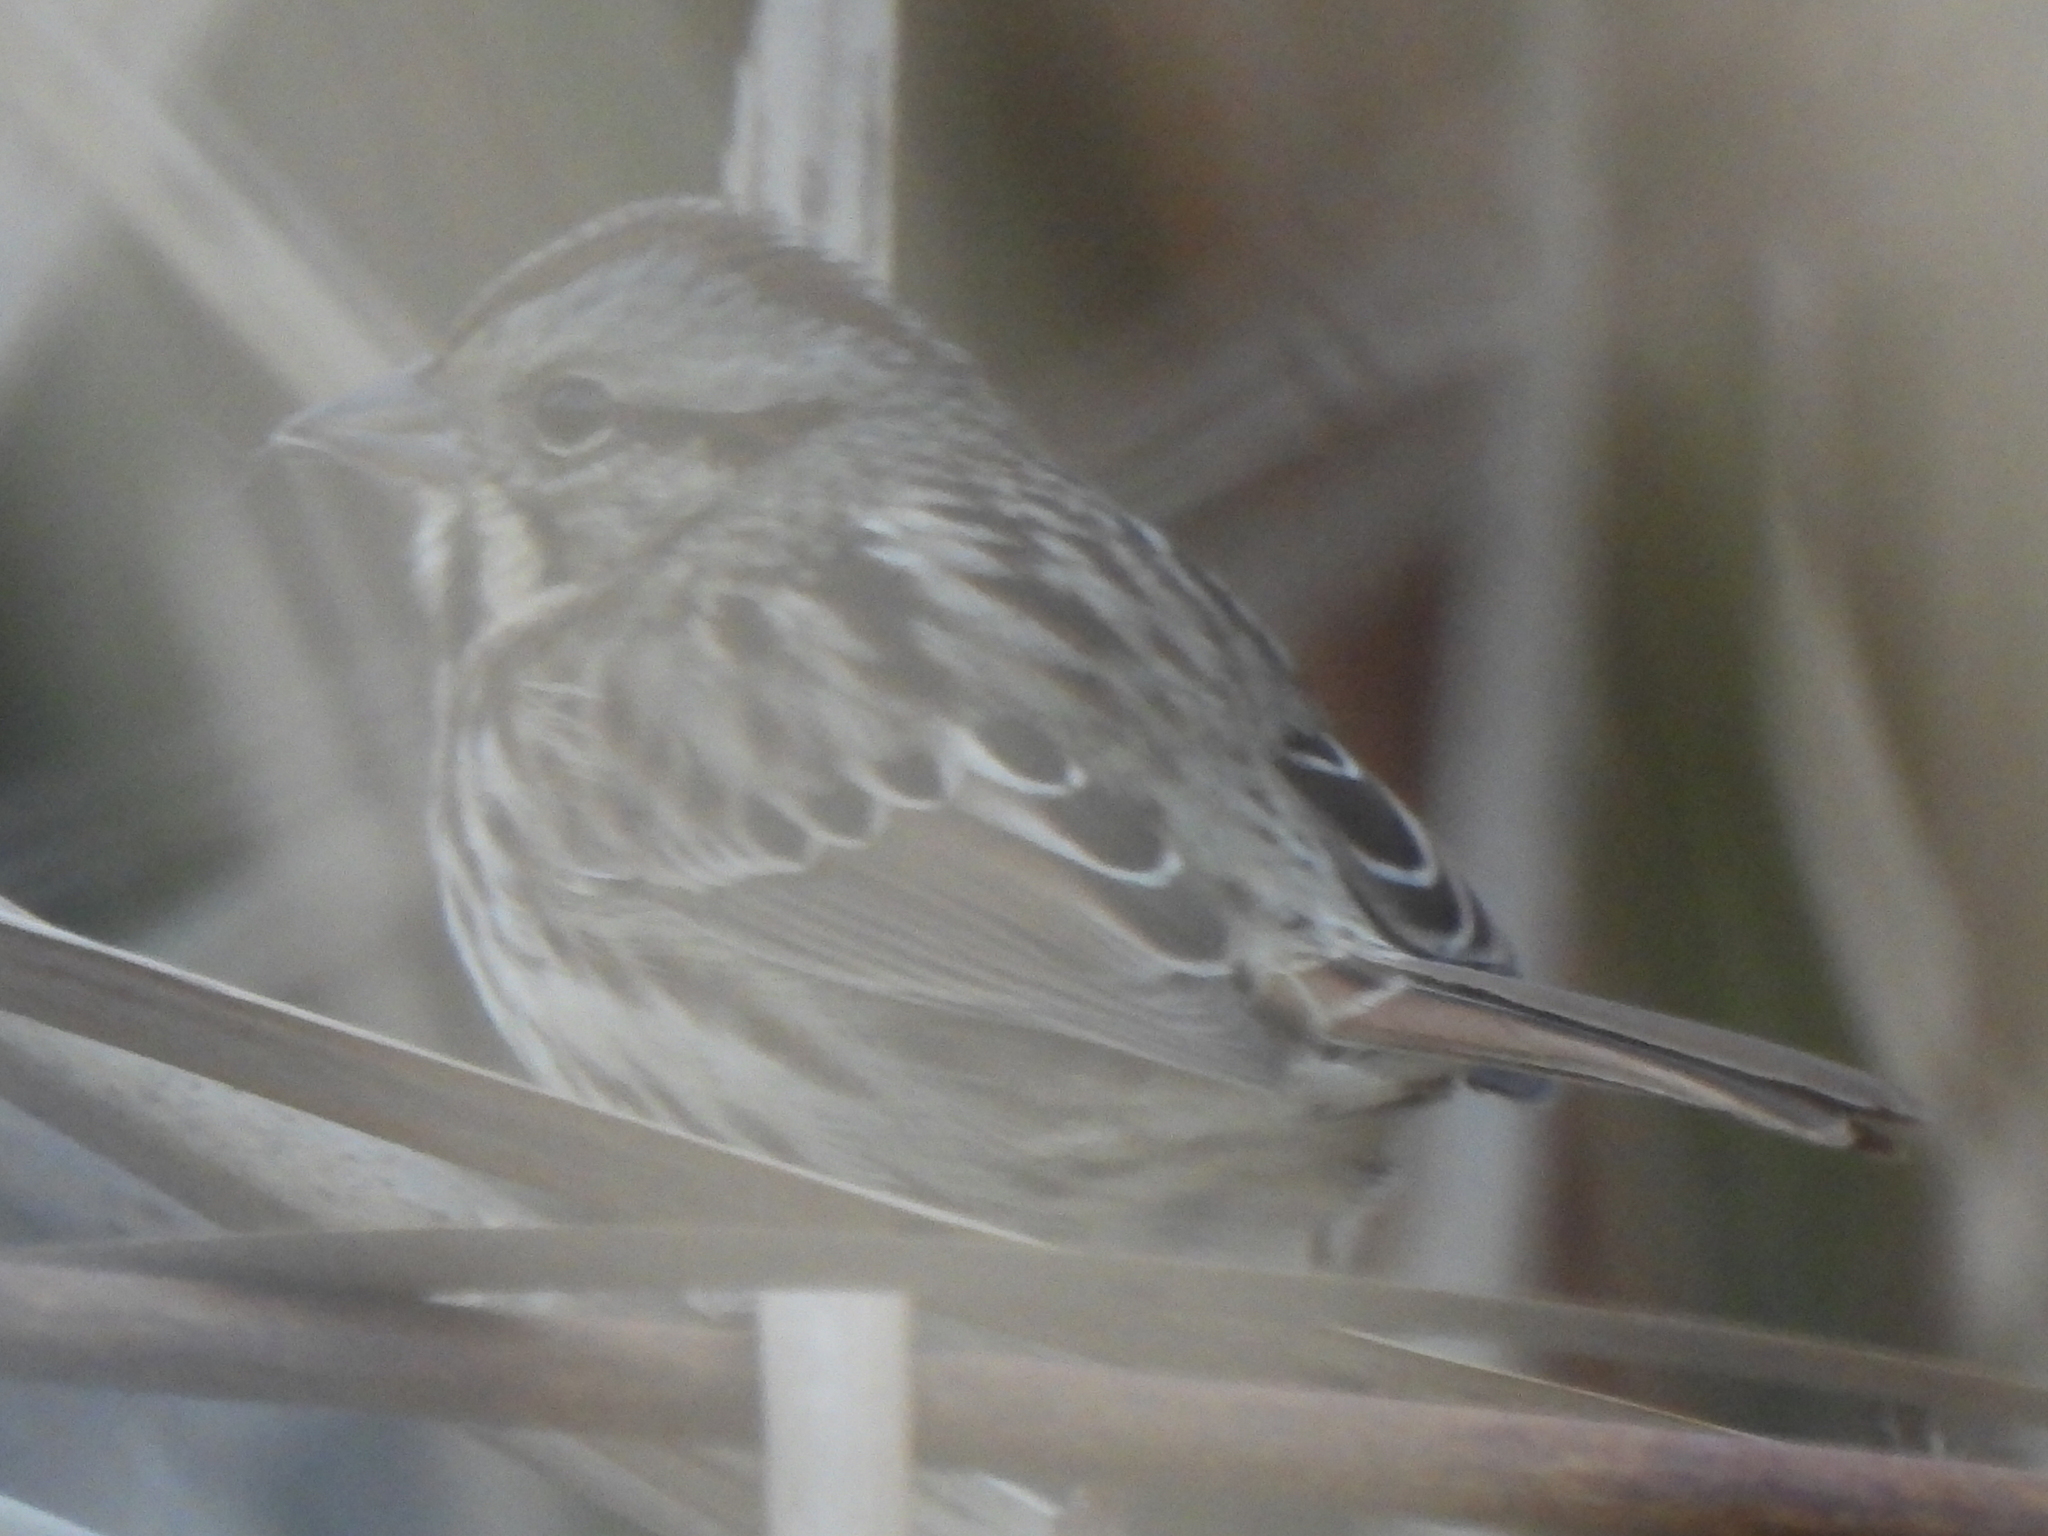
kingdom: Animalia
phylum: Chordata
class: Aves
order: Passeriformes
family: Passerellidae
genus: Melospiza
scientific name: Melospiza melodia
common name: Song sparrow
